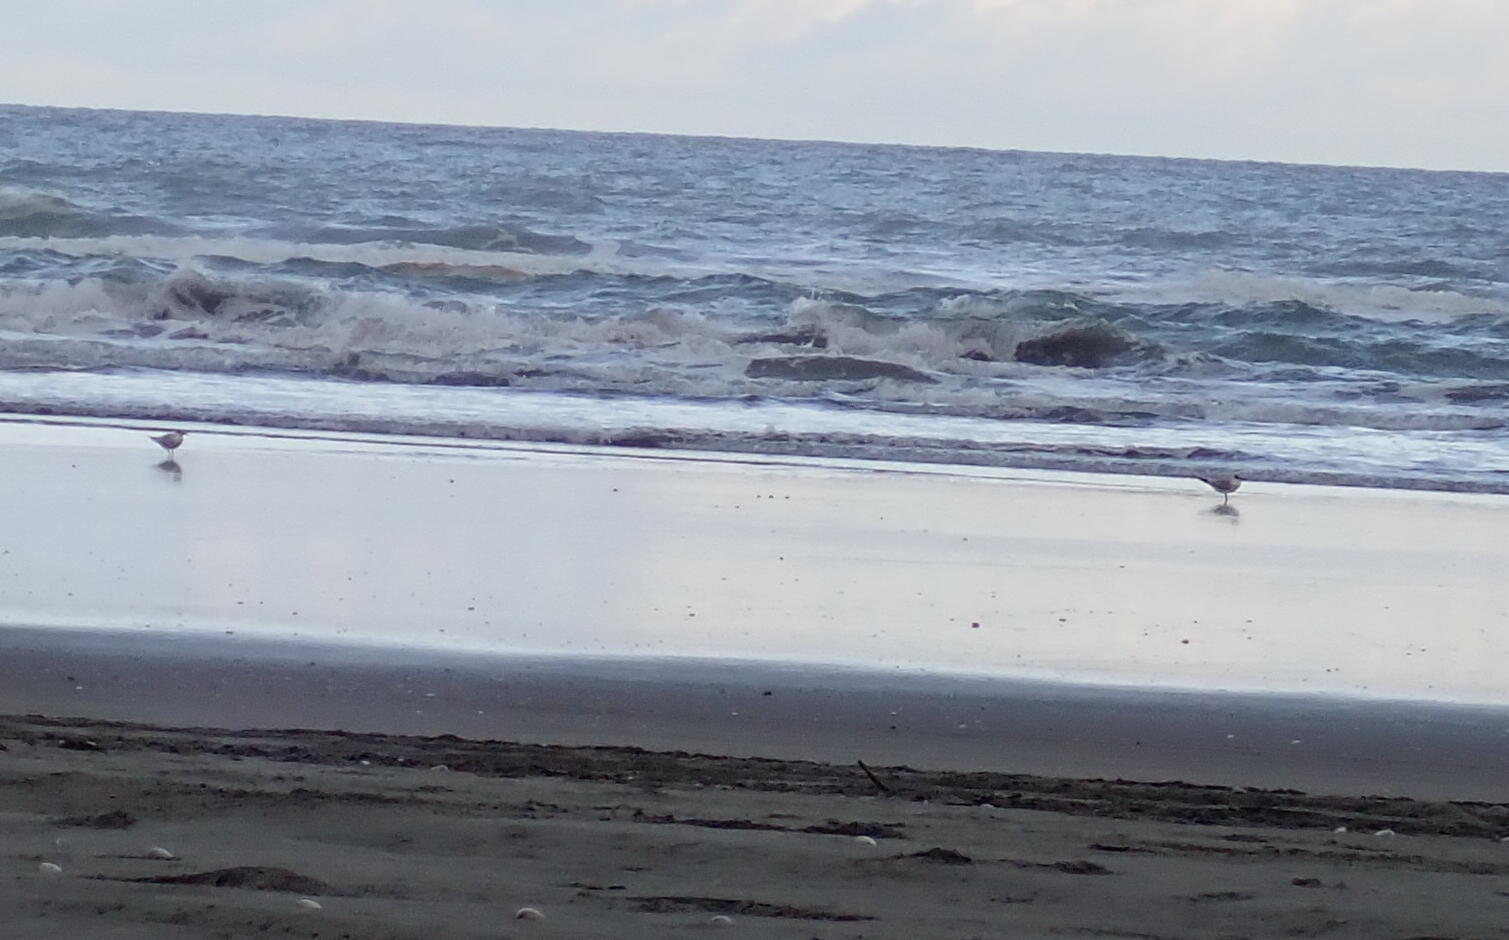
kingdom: Animalia
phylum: Chordata
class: Aves
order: Charadriiformes
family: Laridae
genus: Hydroprogne
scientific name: Hydroprogne caspia
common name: Caspian tern
